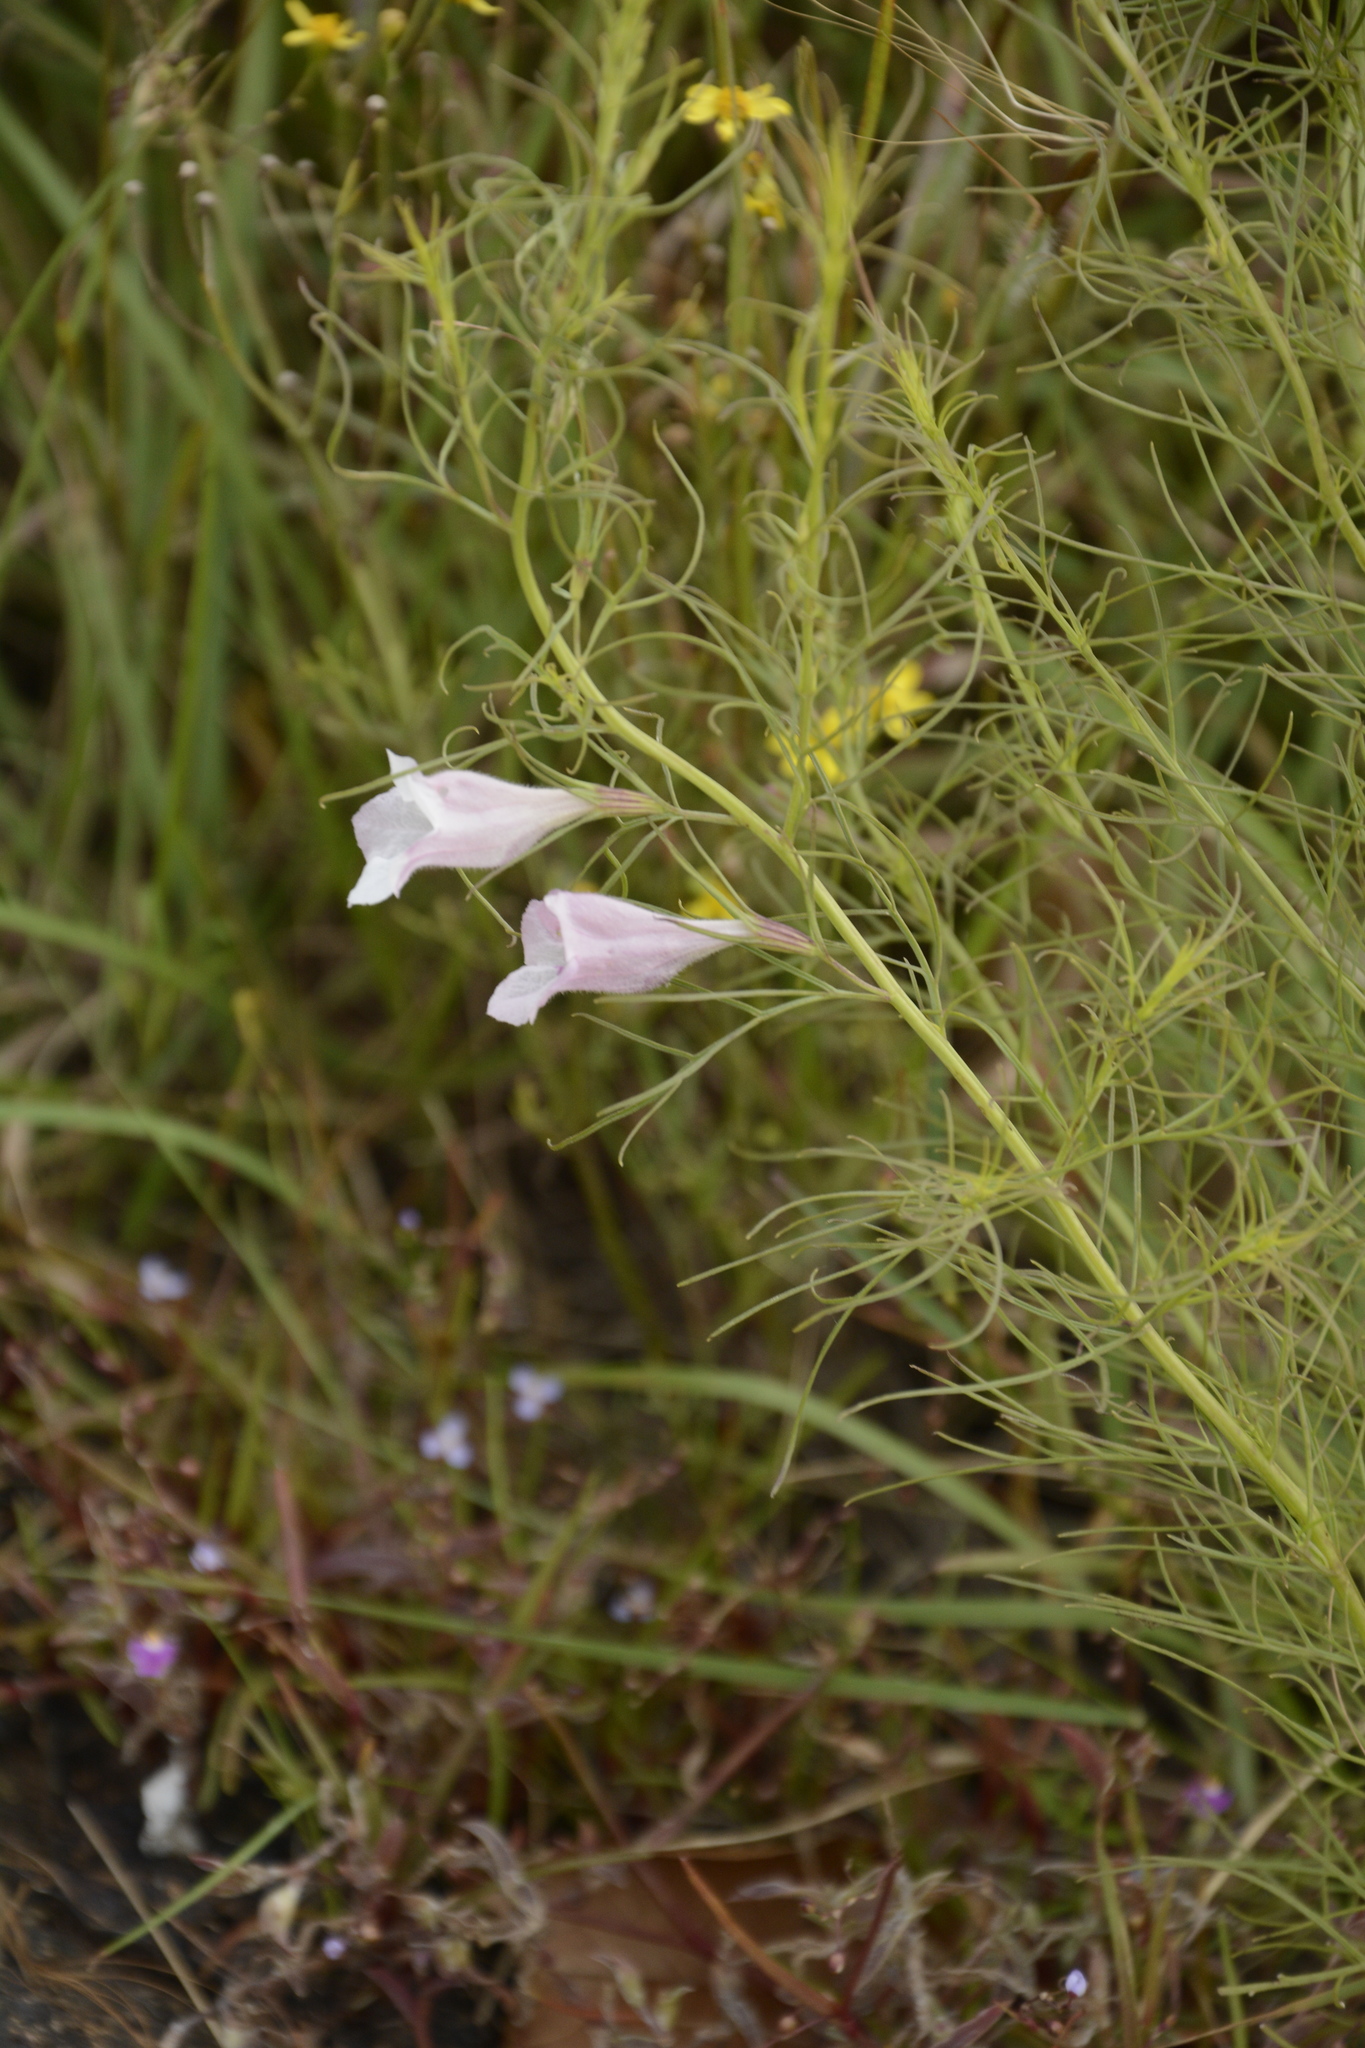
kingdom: Plantae
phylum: Tracheophyta
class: Magnoliopsida
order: Lamiales
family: Orobanchaceae
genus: Parasopubia
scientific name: Parasopubia delphiniifolia
